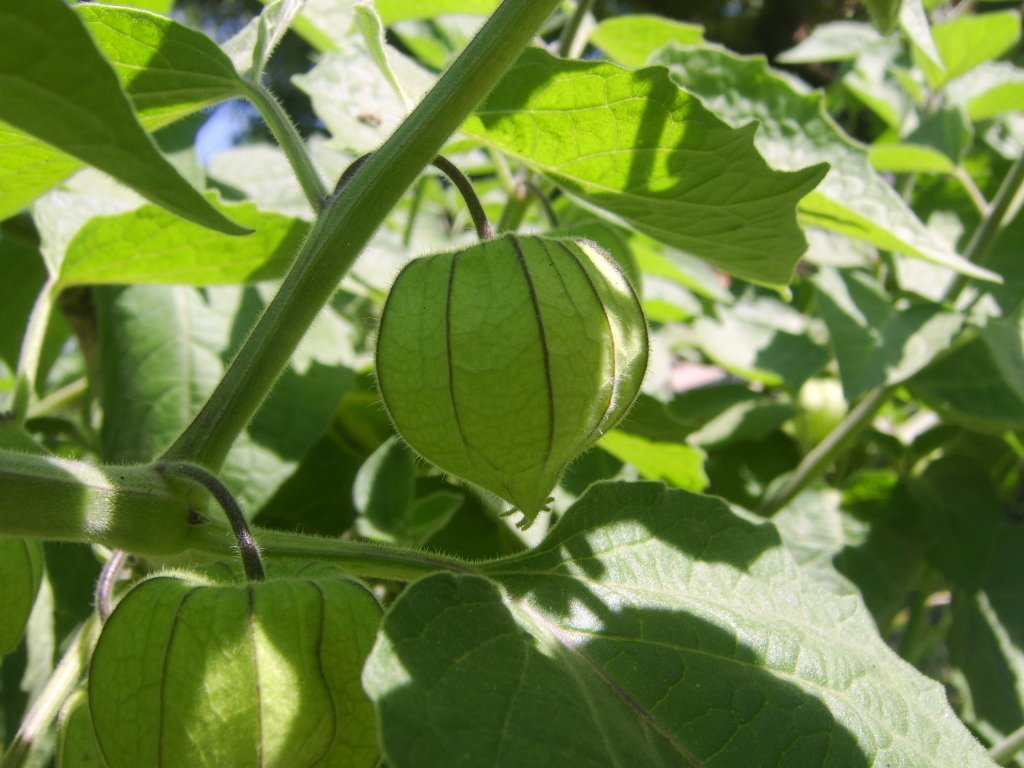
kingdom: Plantae
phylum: Tracheophyta
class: Magnoliopsida
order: Solanales
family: Solanaceae
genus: Physalis
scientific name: Physalis peruviana
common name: Cape-gooseberry
